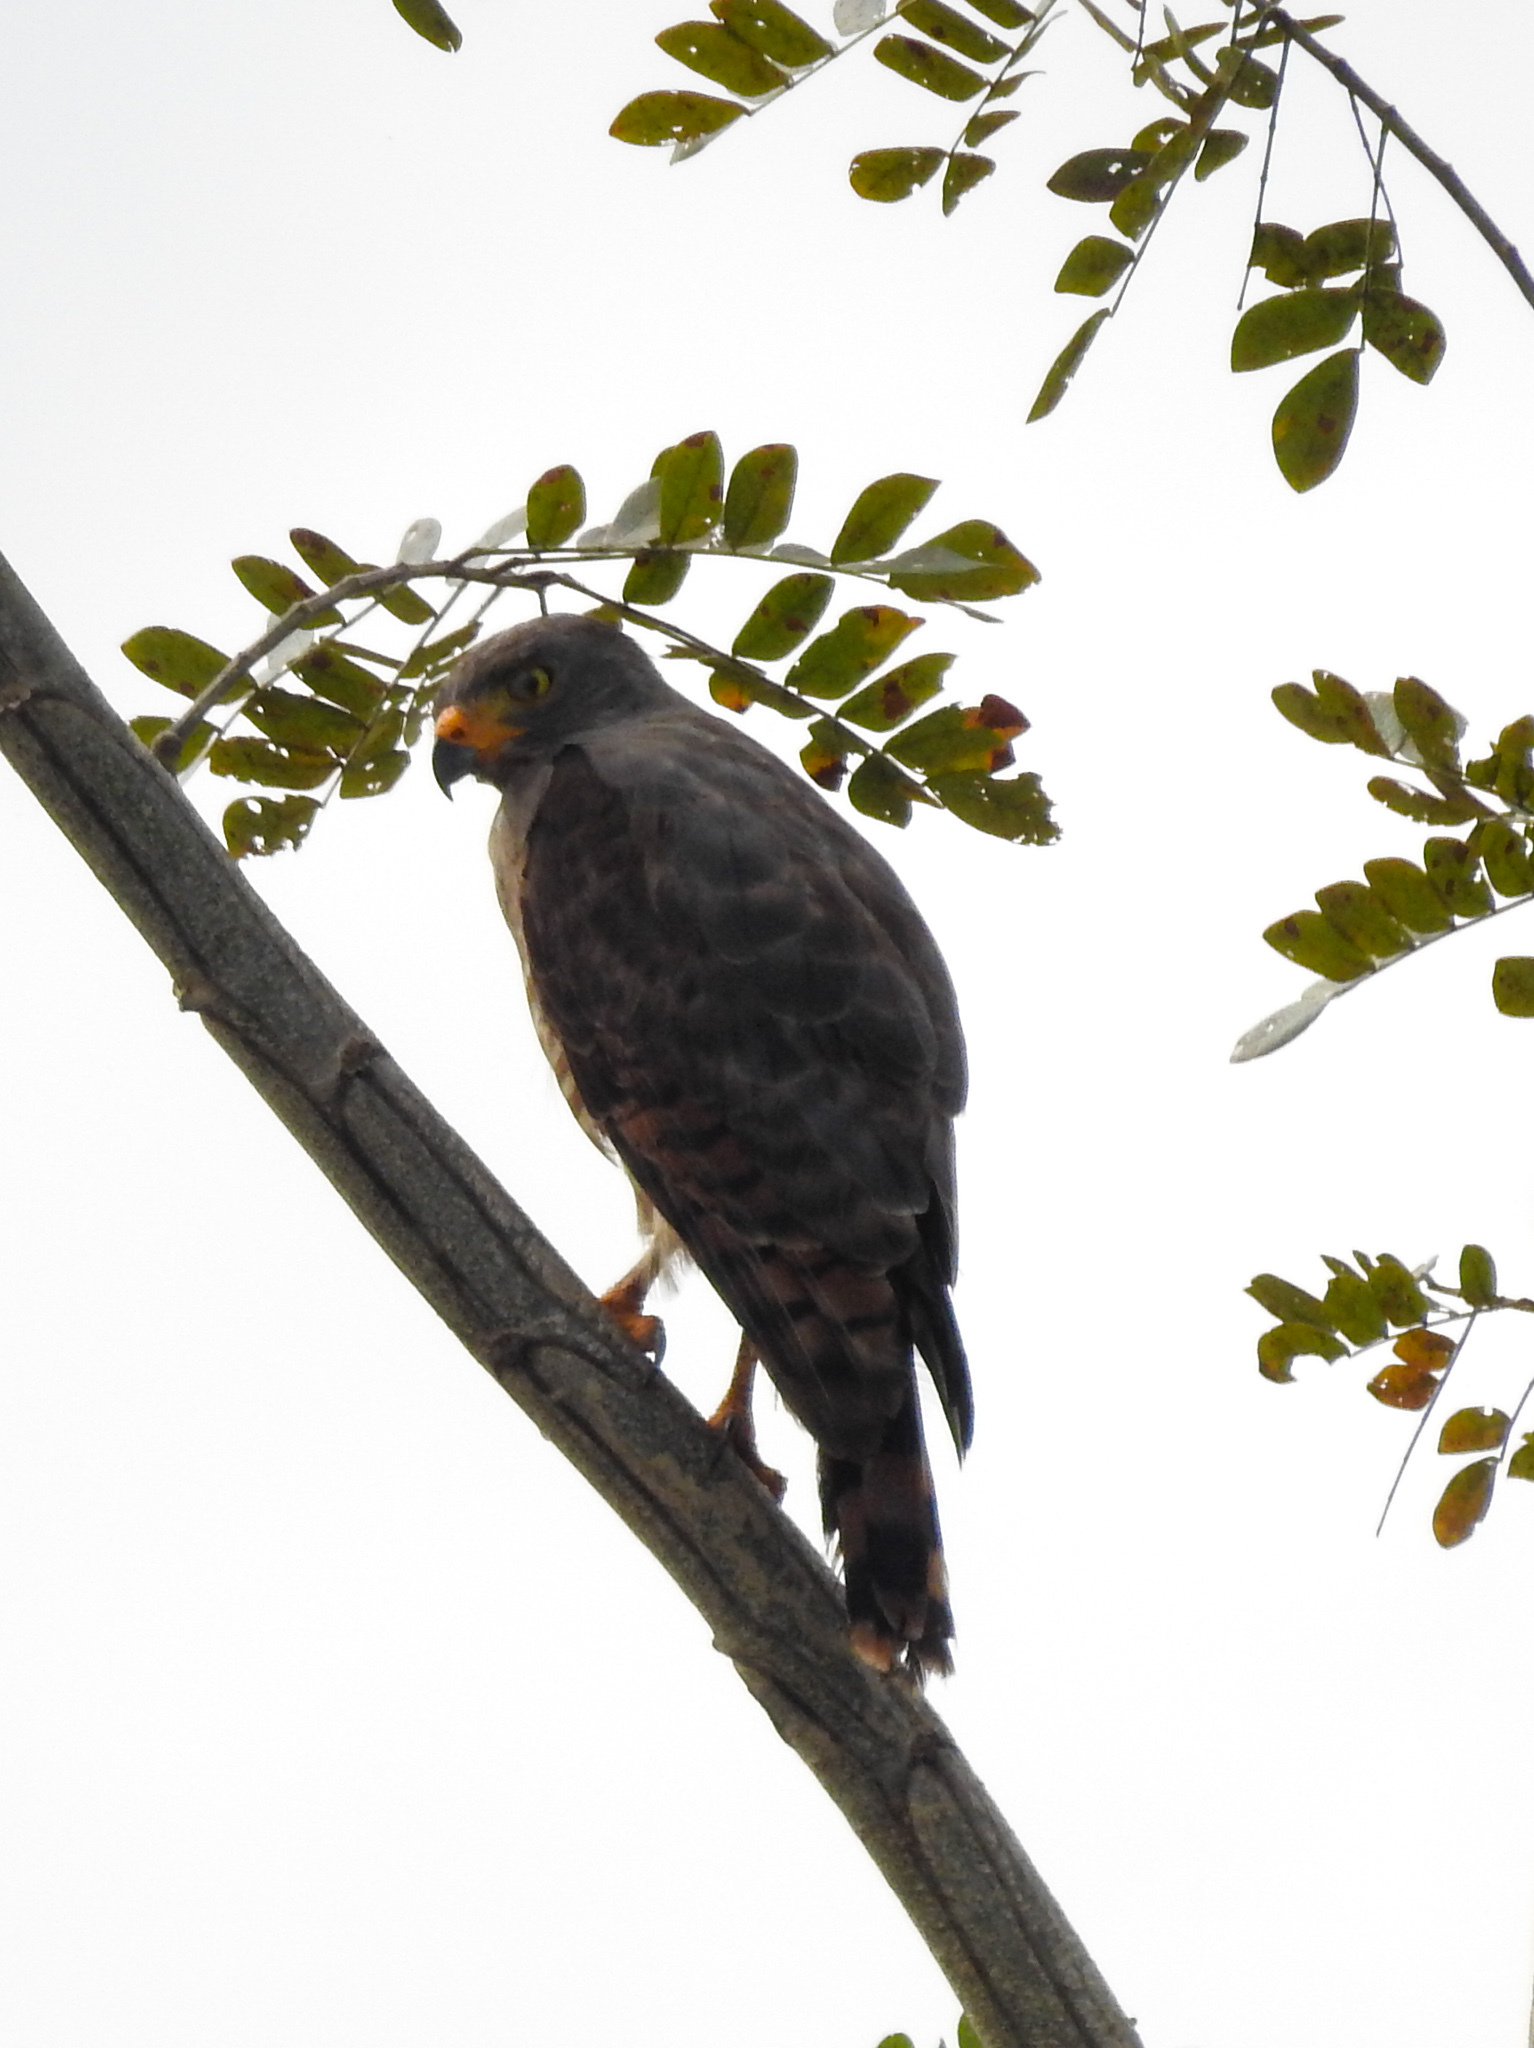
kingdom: Animalia
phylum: Chordata
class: Aves
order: Accipitriformes
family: Accipitridae
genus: Rupornis
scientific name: Rupornis magnirostris
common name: Roadside hawk
